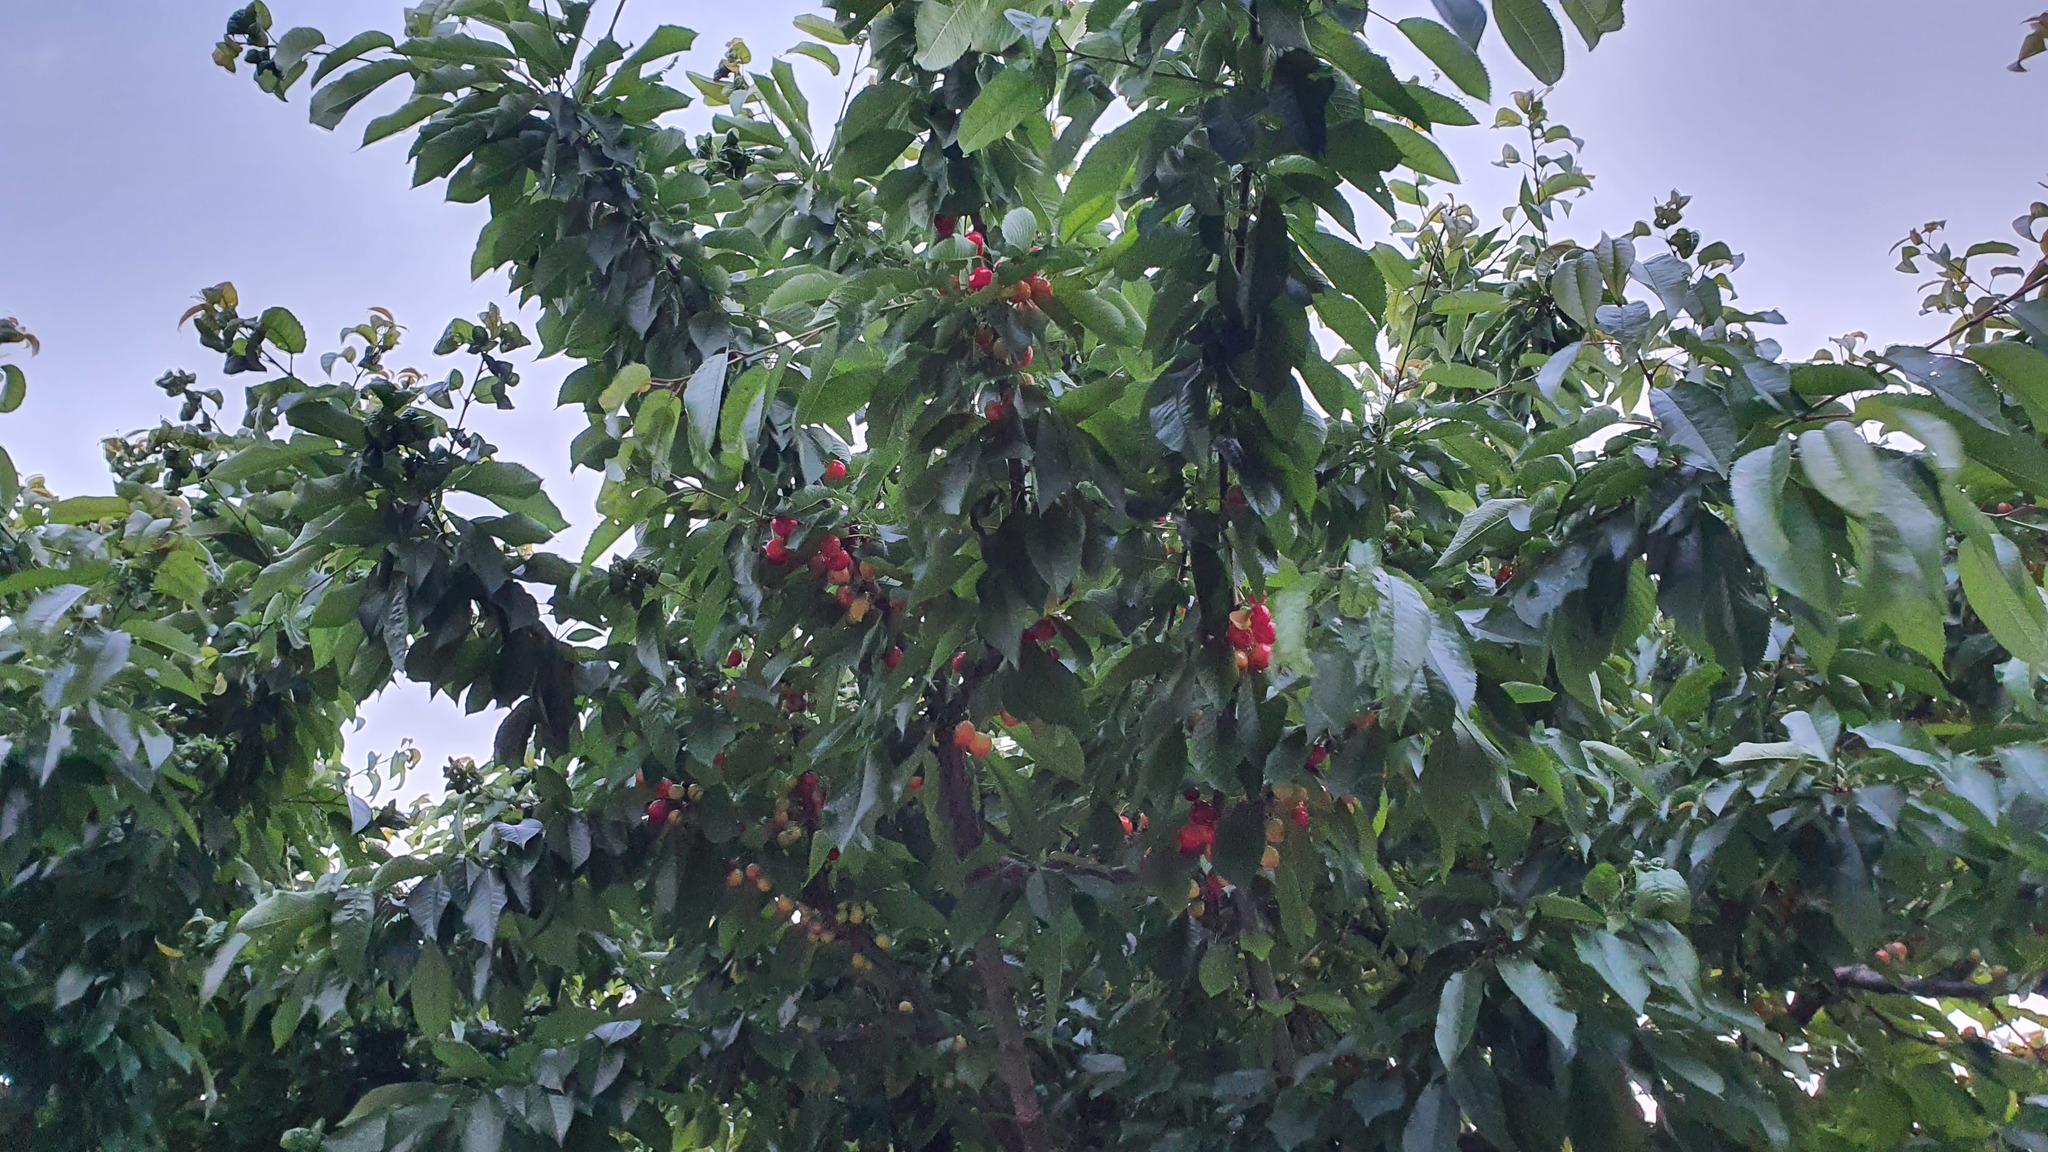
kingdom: Plantae
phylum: Tracheophyta
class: Magnoliopsida
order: Rosales
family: Rosaceae
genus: Prunus
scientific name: Prunus avium
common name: Sweet cherry
